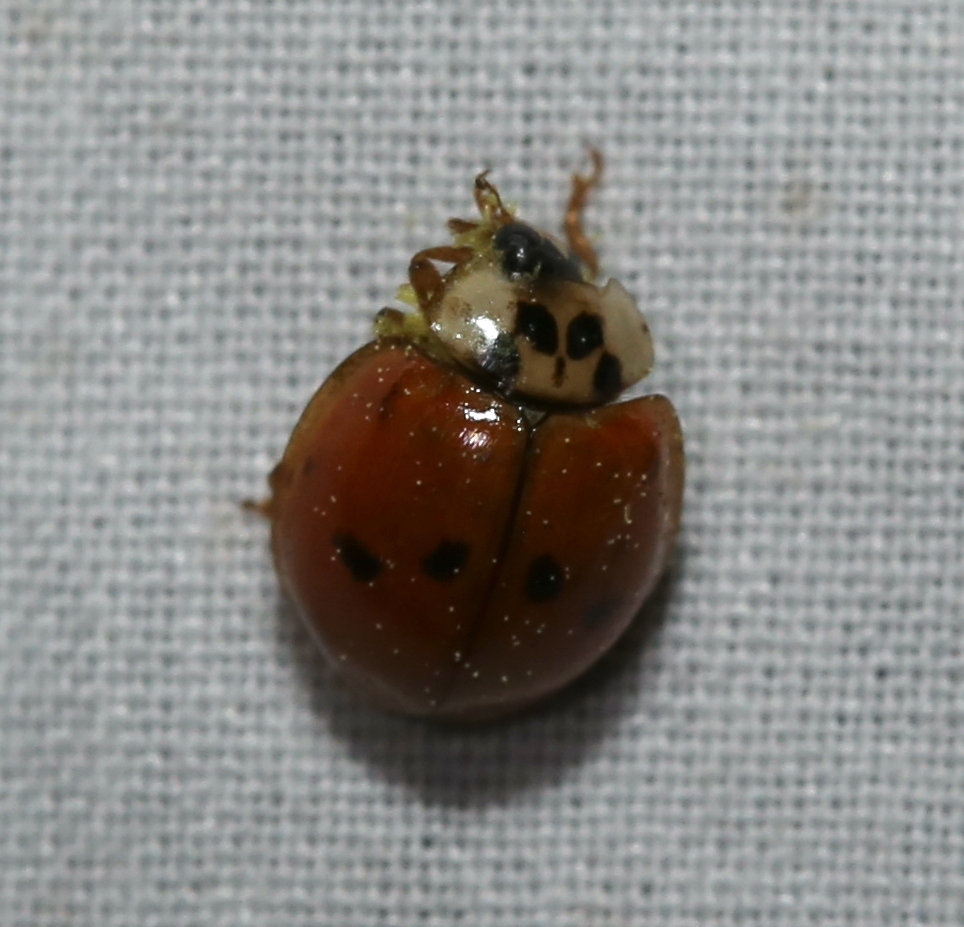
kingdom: Animalia
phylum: Arthropoda
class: Insecta
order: Coleoptera
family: Coccinellidae
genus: Harmonia
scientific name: Harmonia axyridis
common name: Harlequin ladybird
